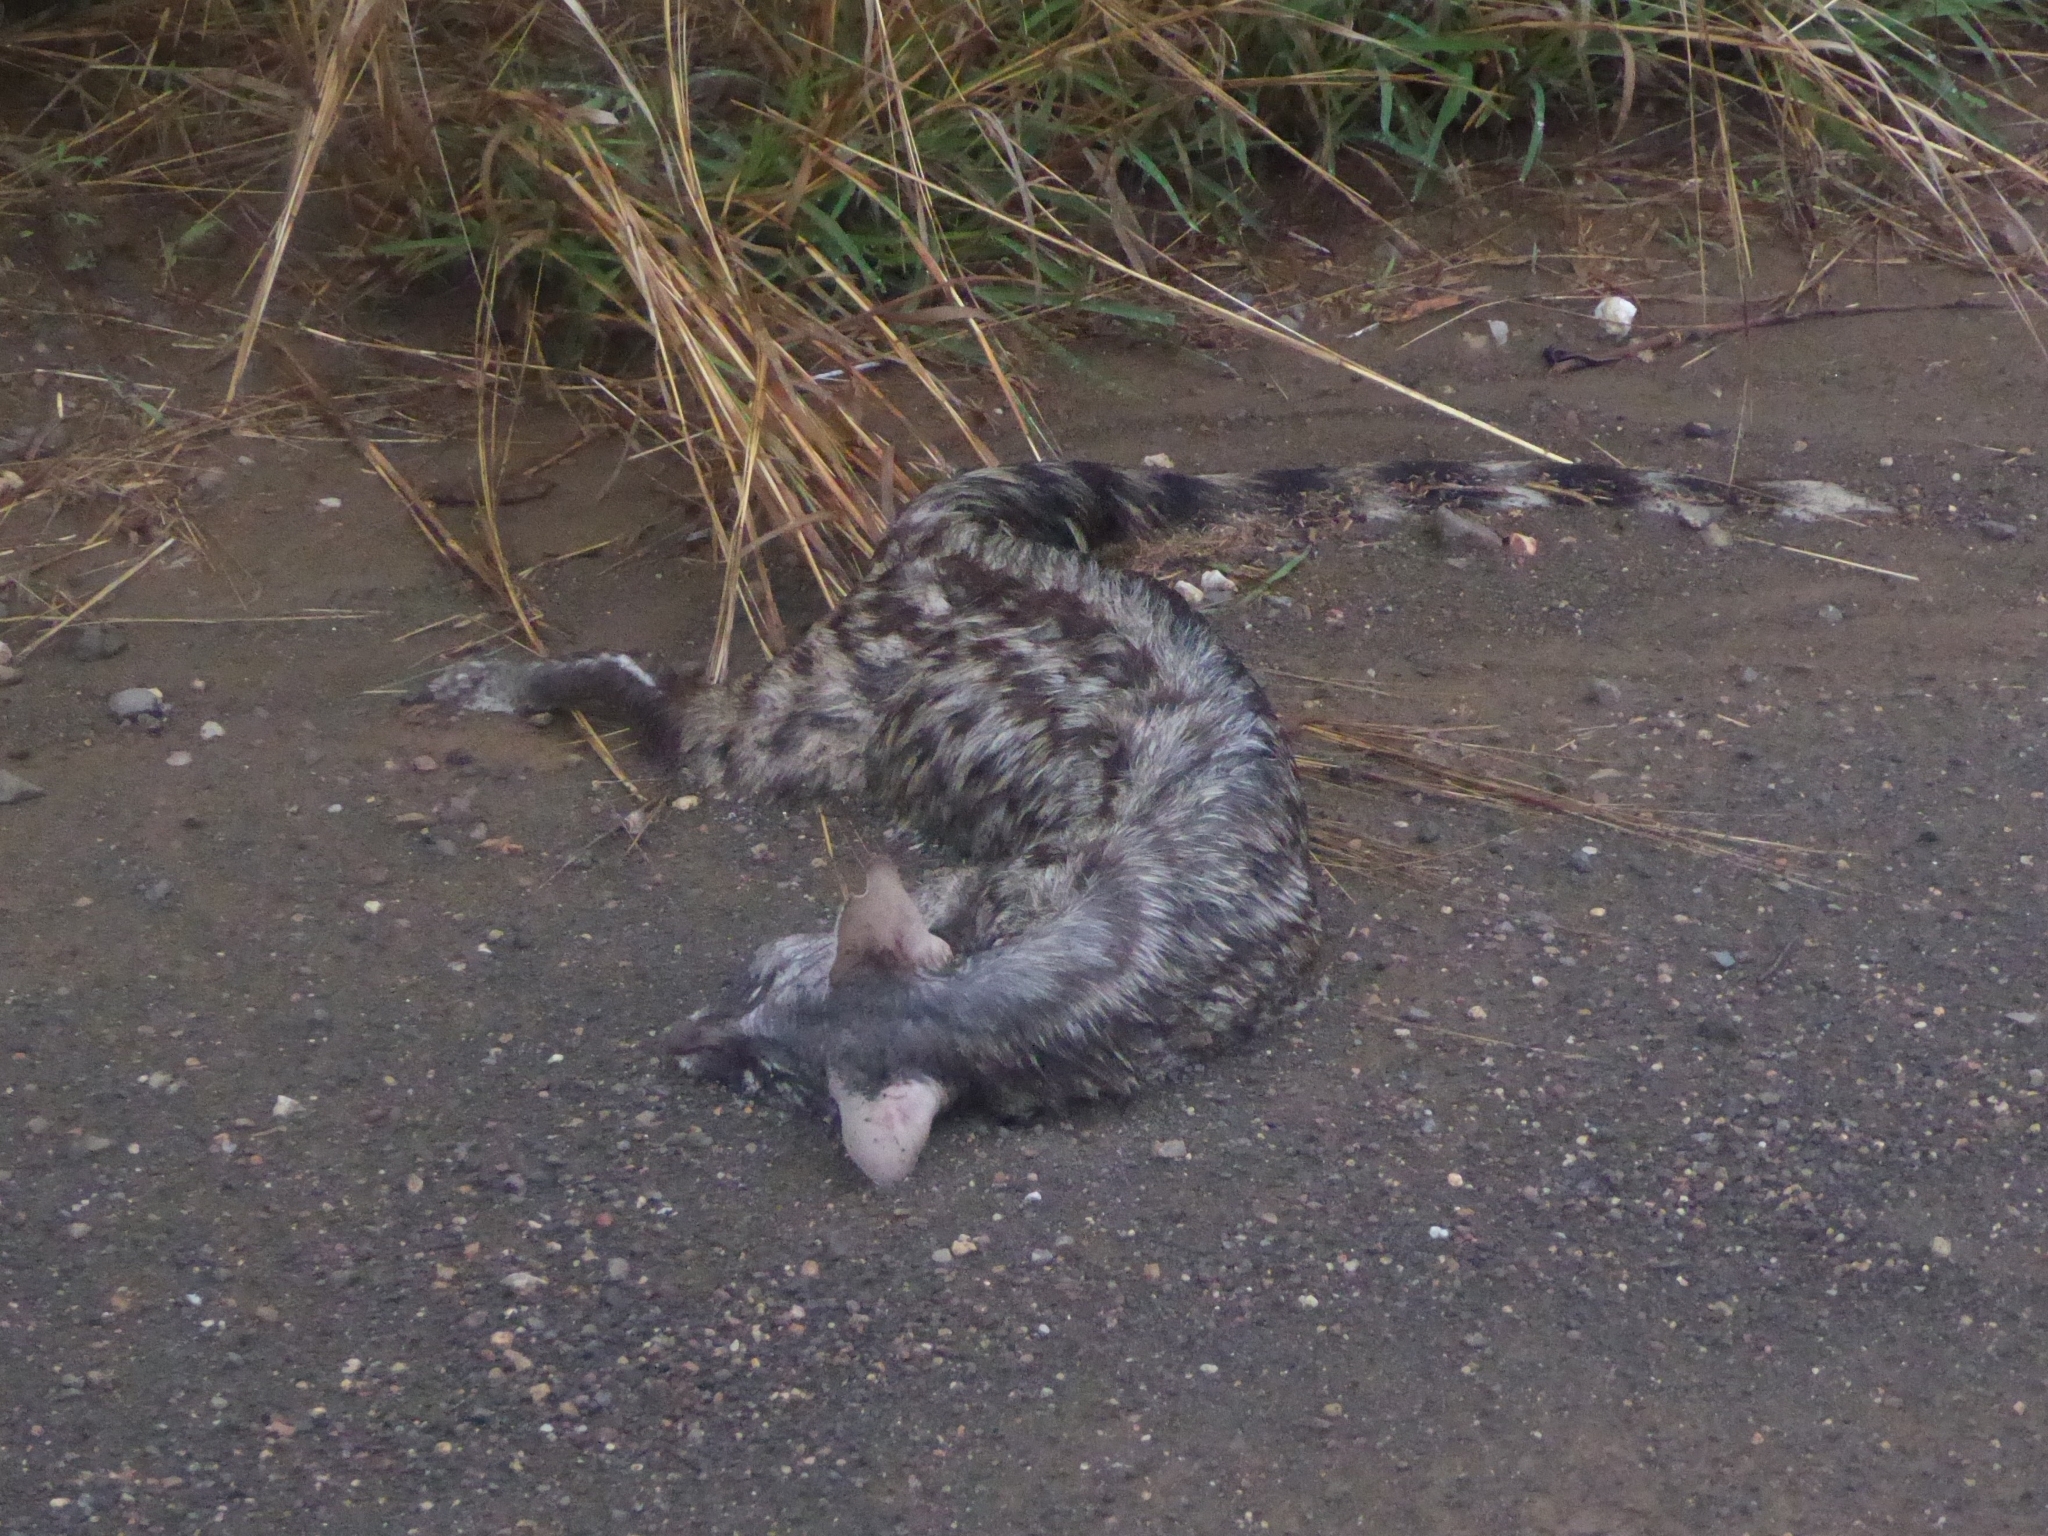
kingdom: Animalia
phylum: Chordata
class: Mammalia
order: Carnivora
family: Viverridae
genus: Genetta
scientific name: Genetta genetta
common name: Common genet
